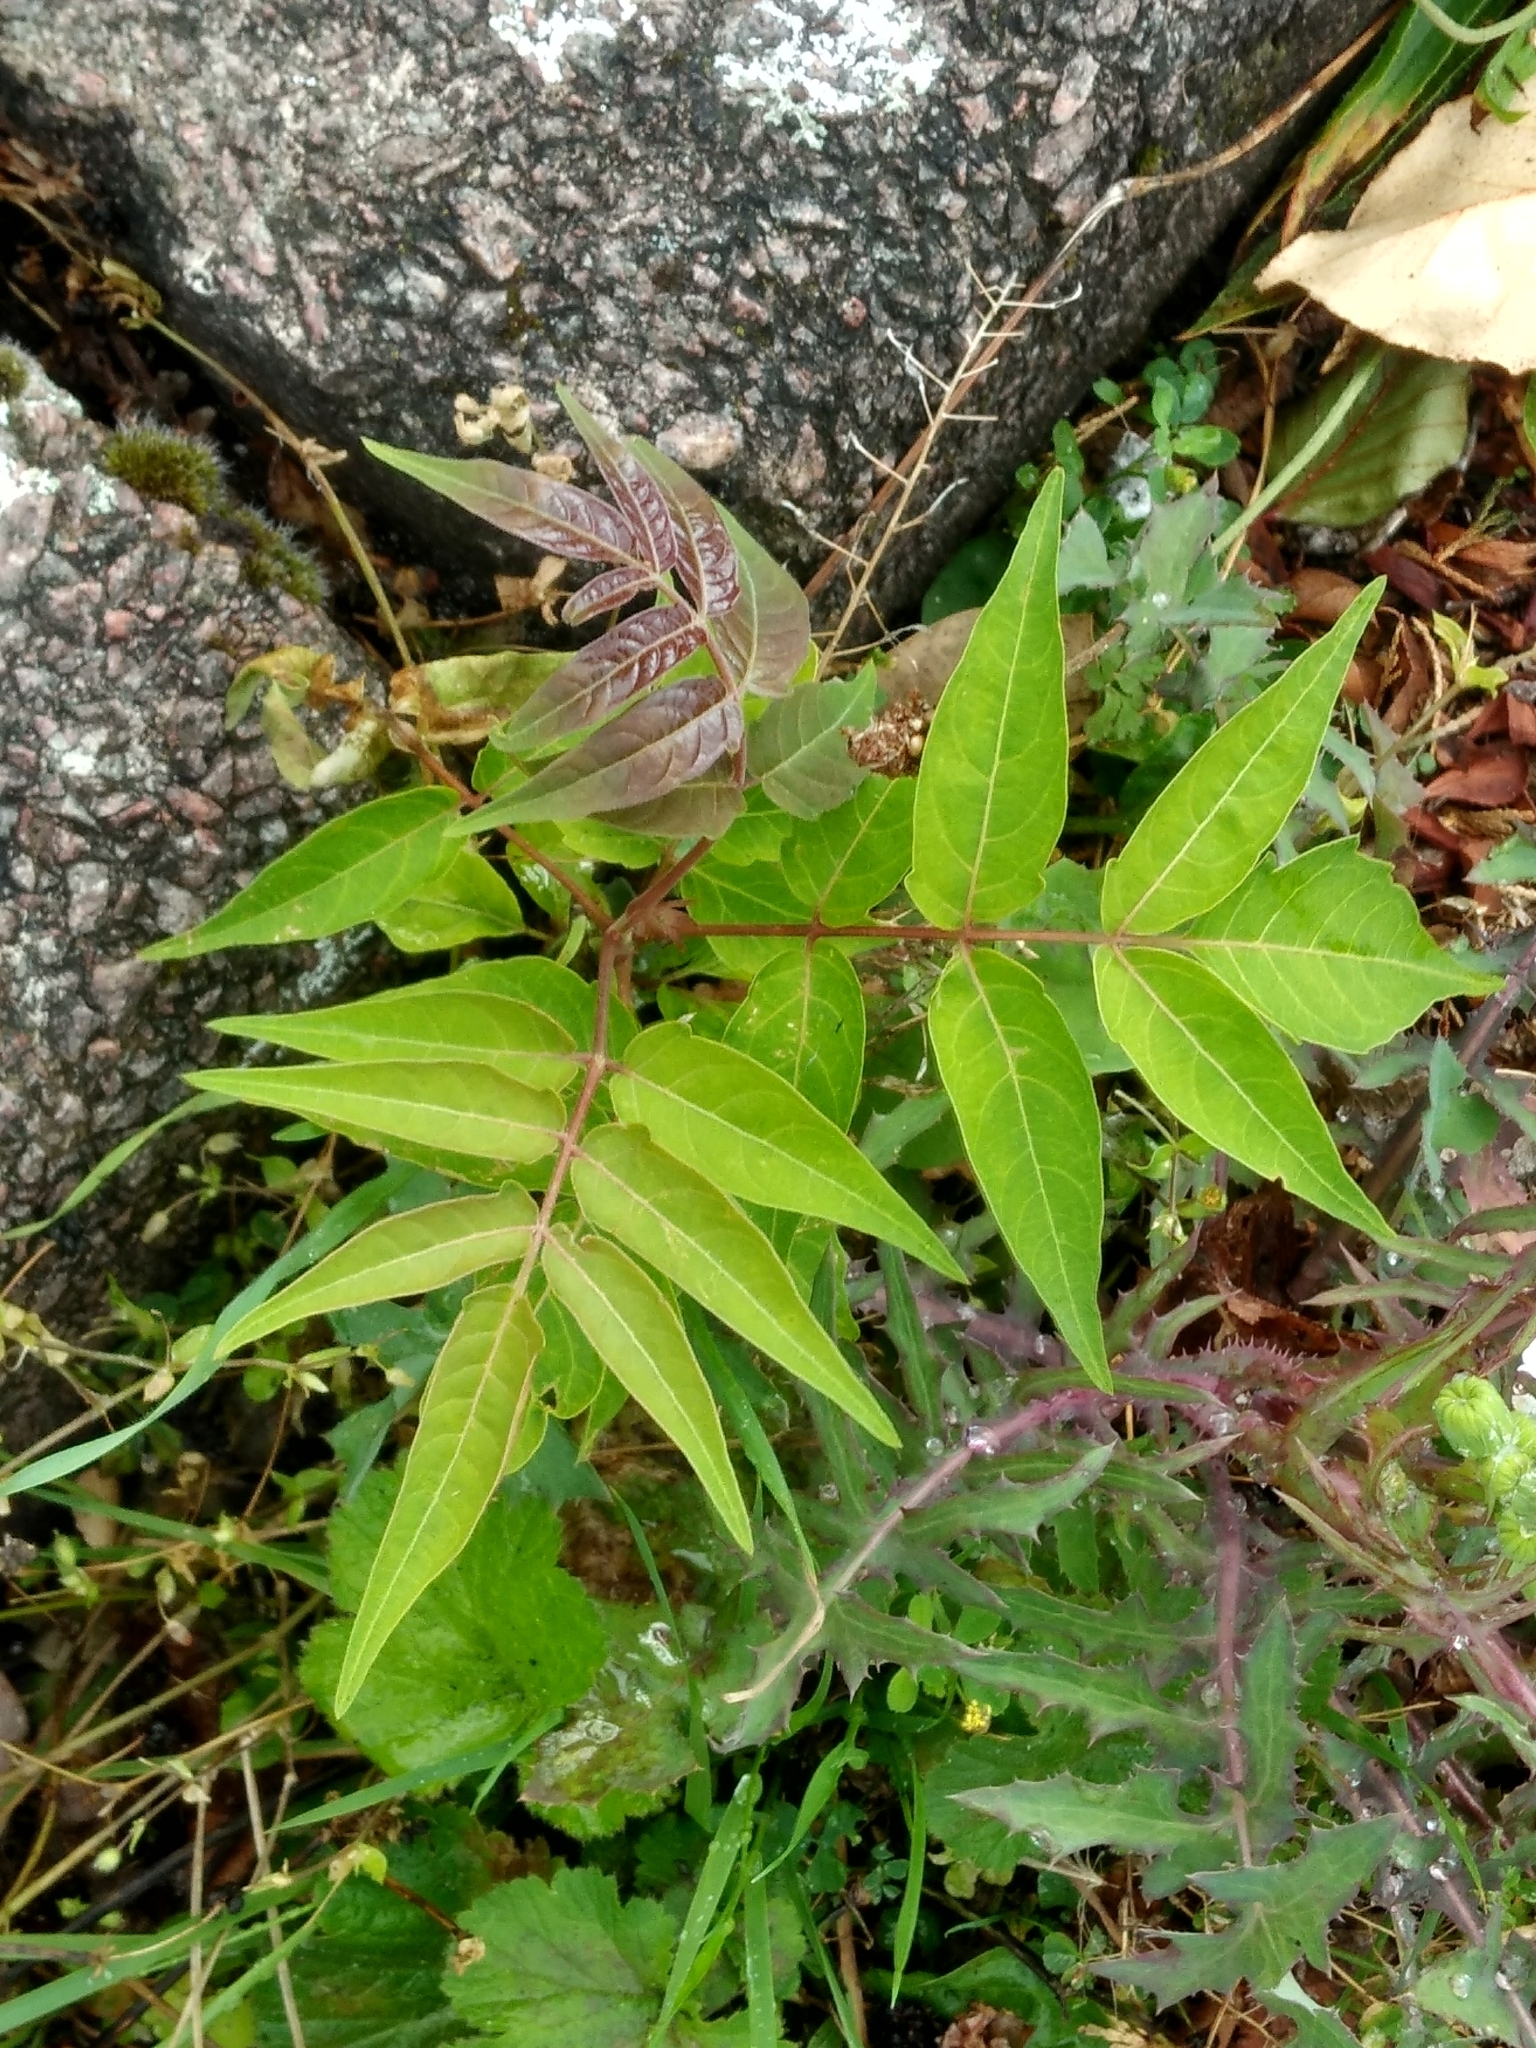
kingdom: Plantae
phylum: Tracheophyta
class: Magnoliopsida
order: Sapindales
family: Simaroubaceae
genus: Ailanthus
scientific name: Ailanthus altissima
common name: Tree-of-heaven
